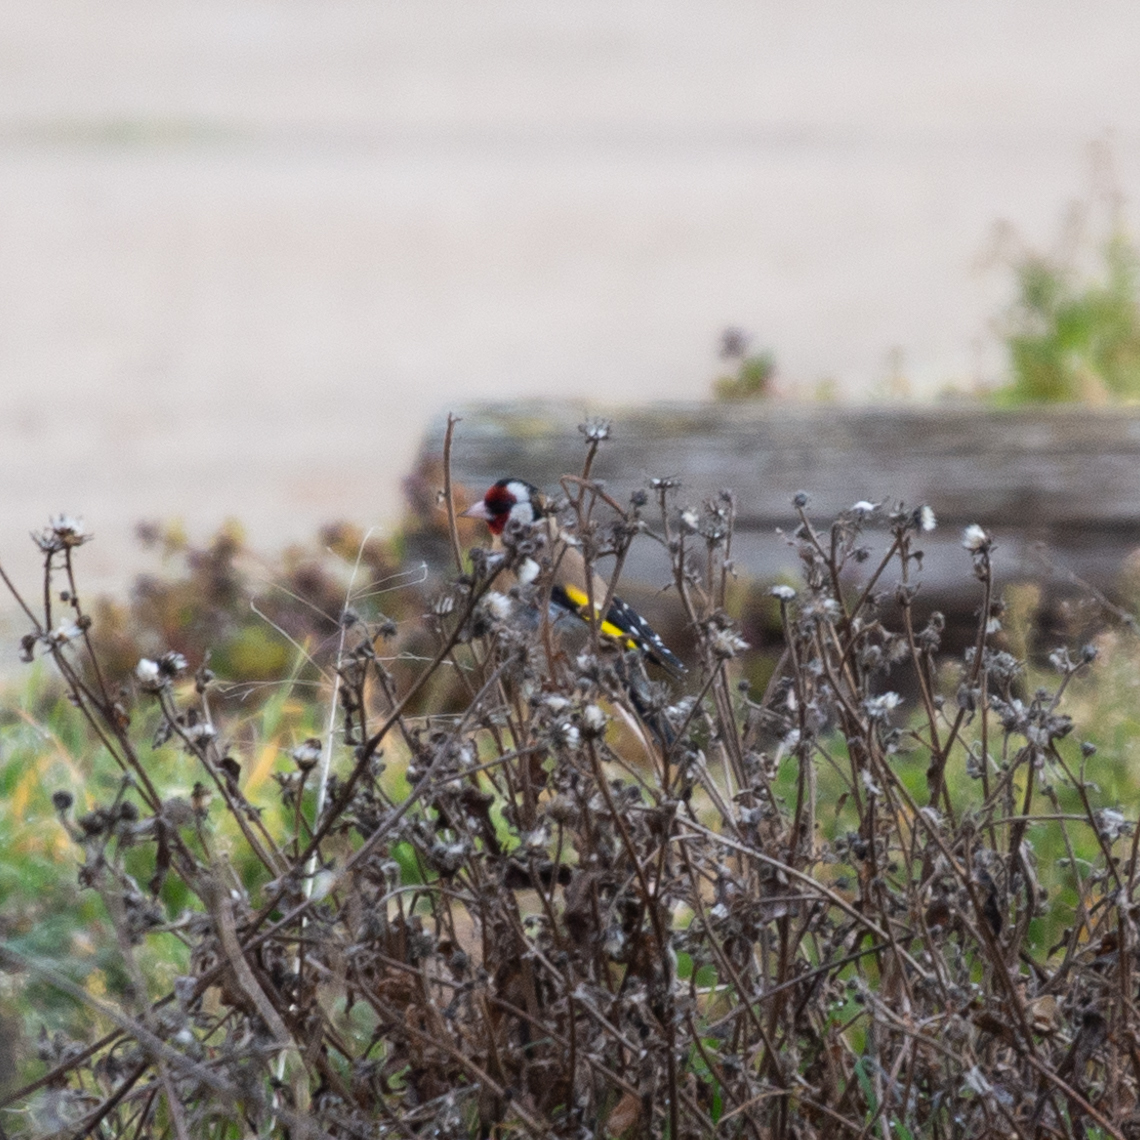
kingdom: Animalia
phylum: Chordata
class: Aves
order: Passeriformes
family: Fringillidae
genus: Carduelis
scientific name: Carduelis carduelis
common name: European goldfinch
